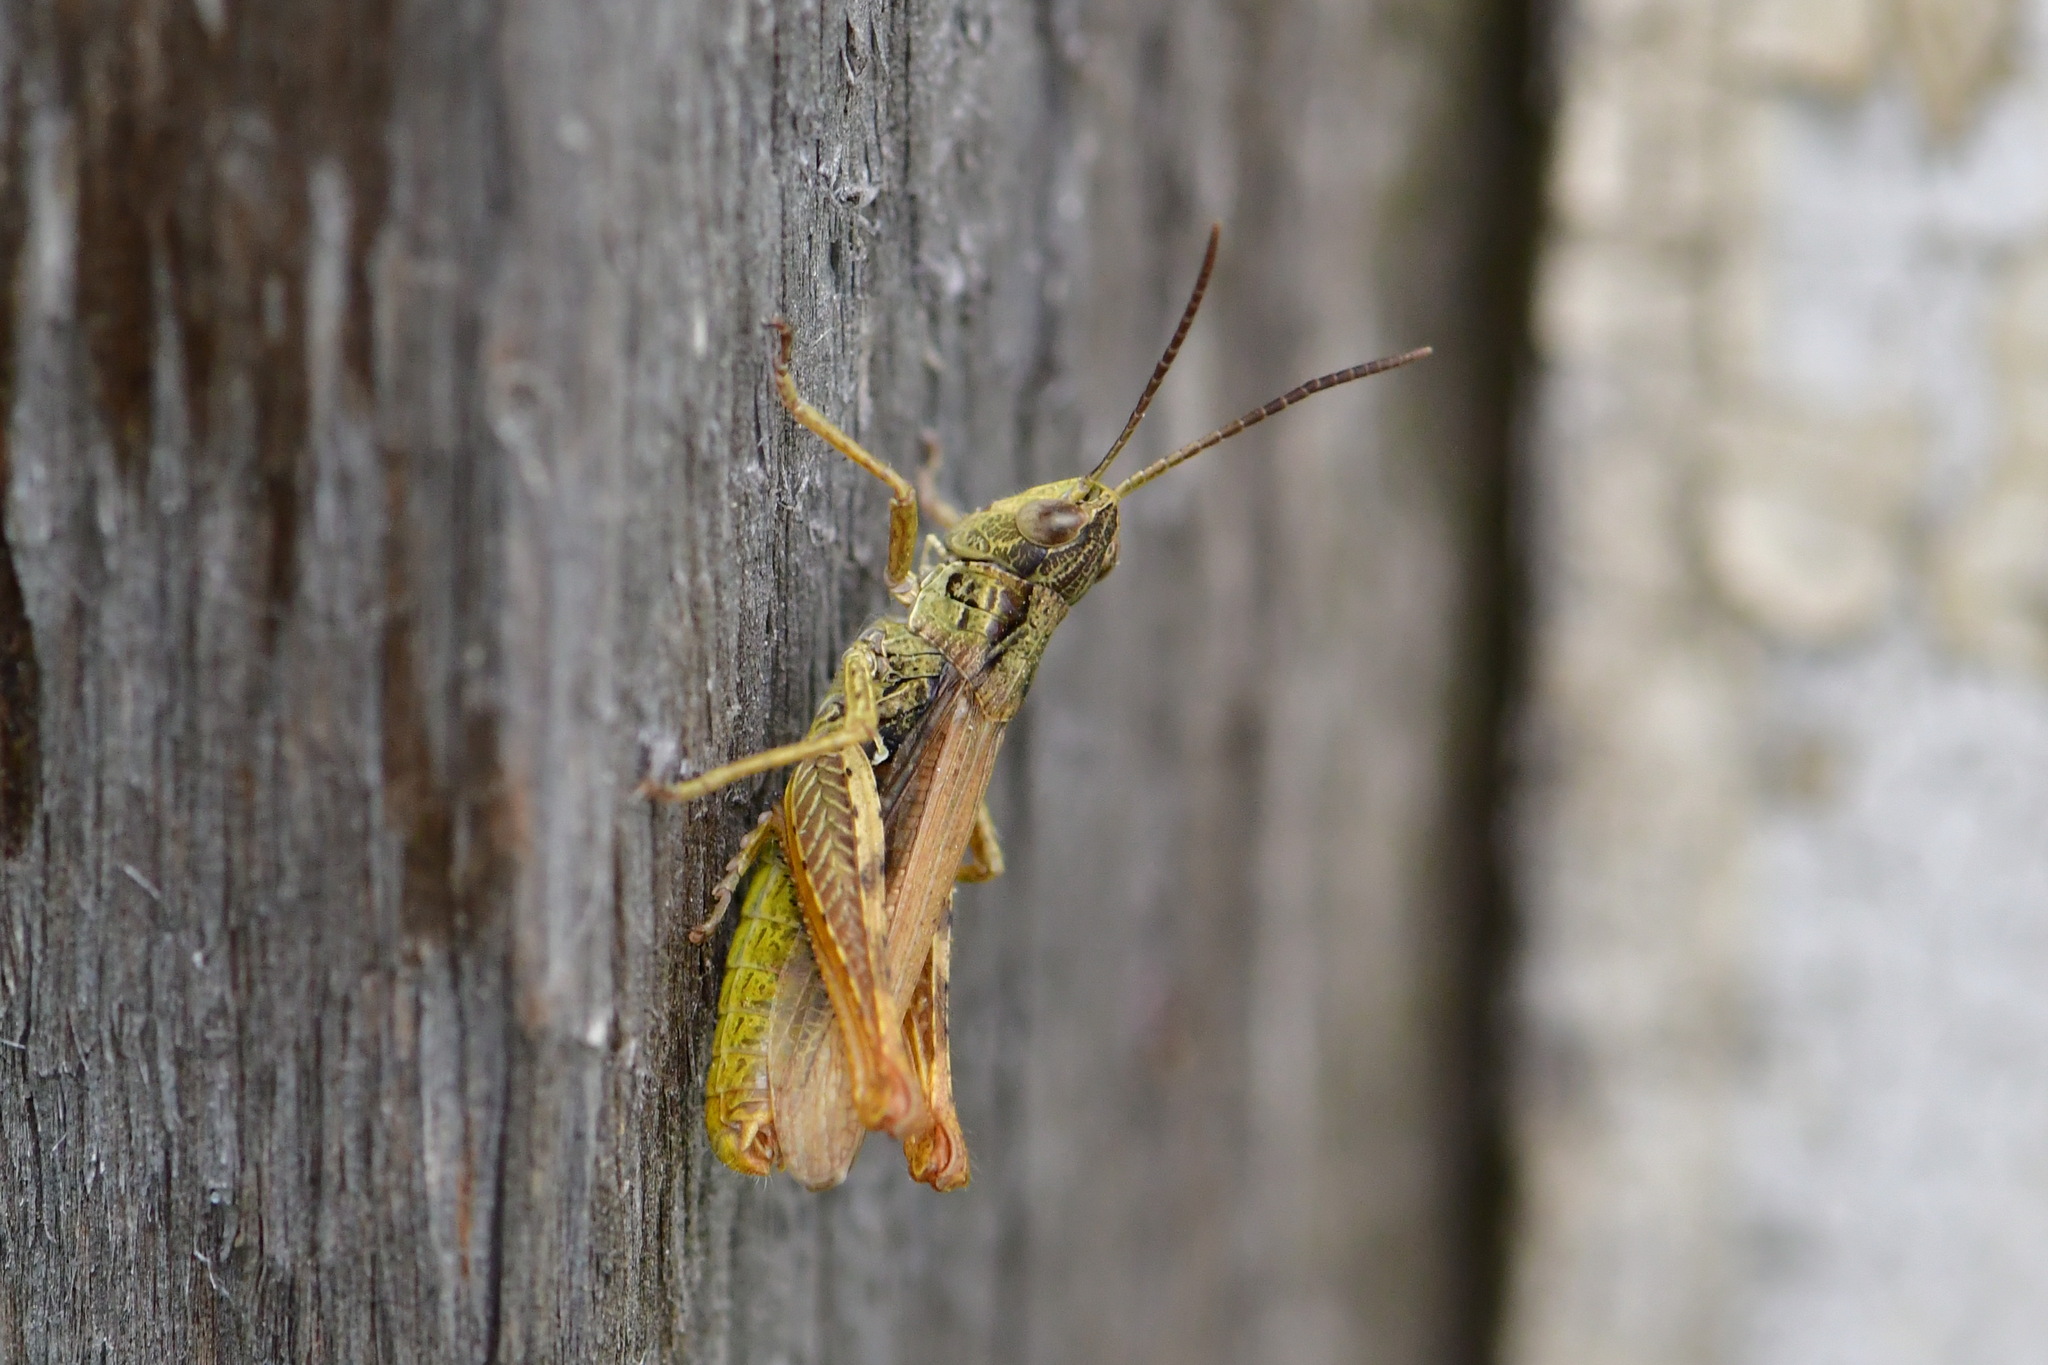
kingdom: Animalia
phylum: Arthropoda
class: Insecta
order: Orthoptera
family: Acrididae
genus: Chorthippus
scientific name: Chorthippus apricarius
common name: Upland field grasshopper
